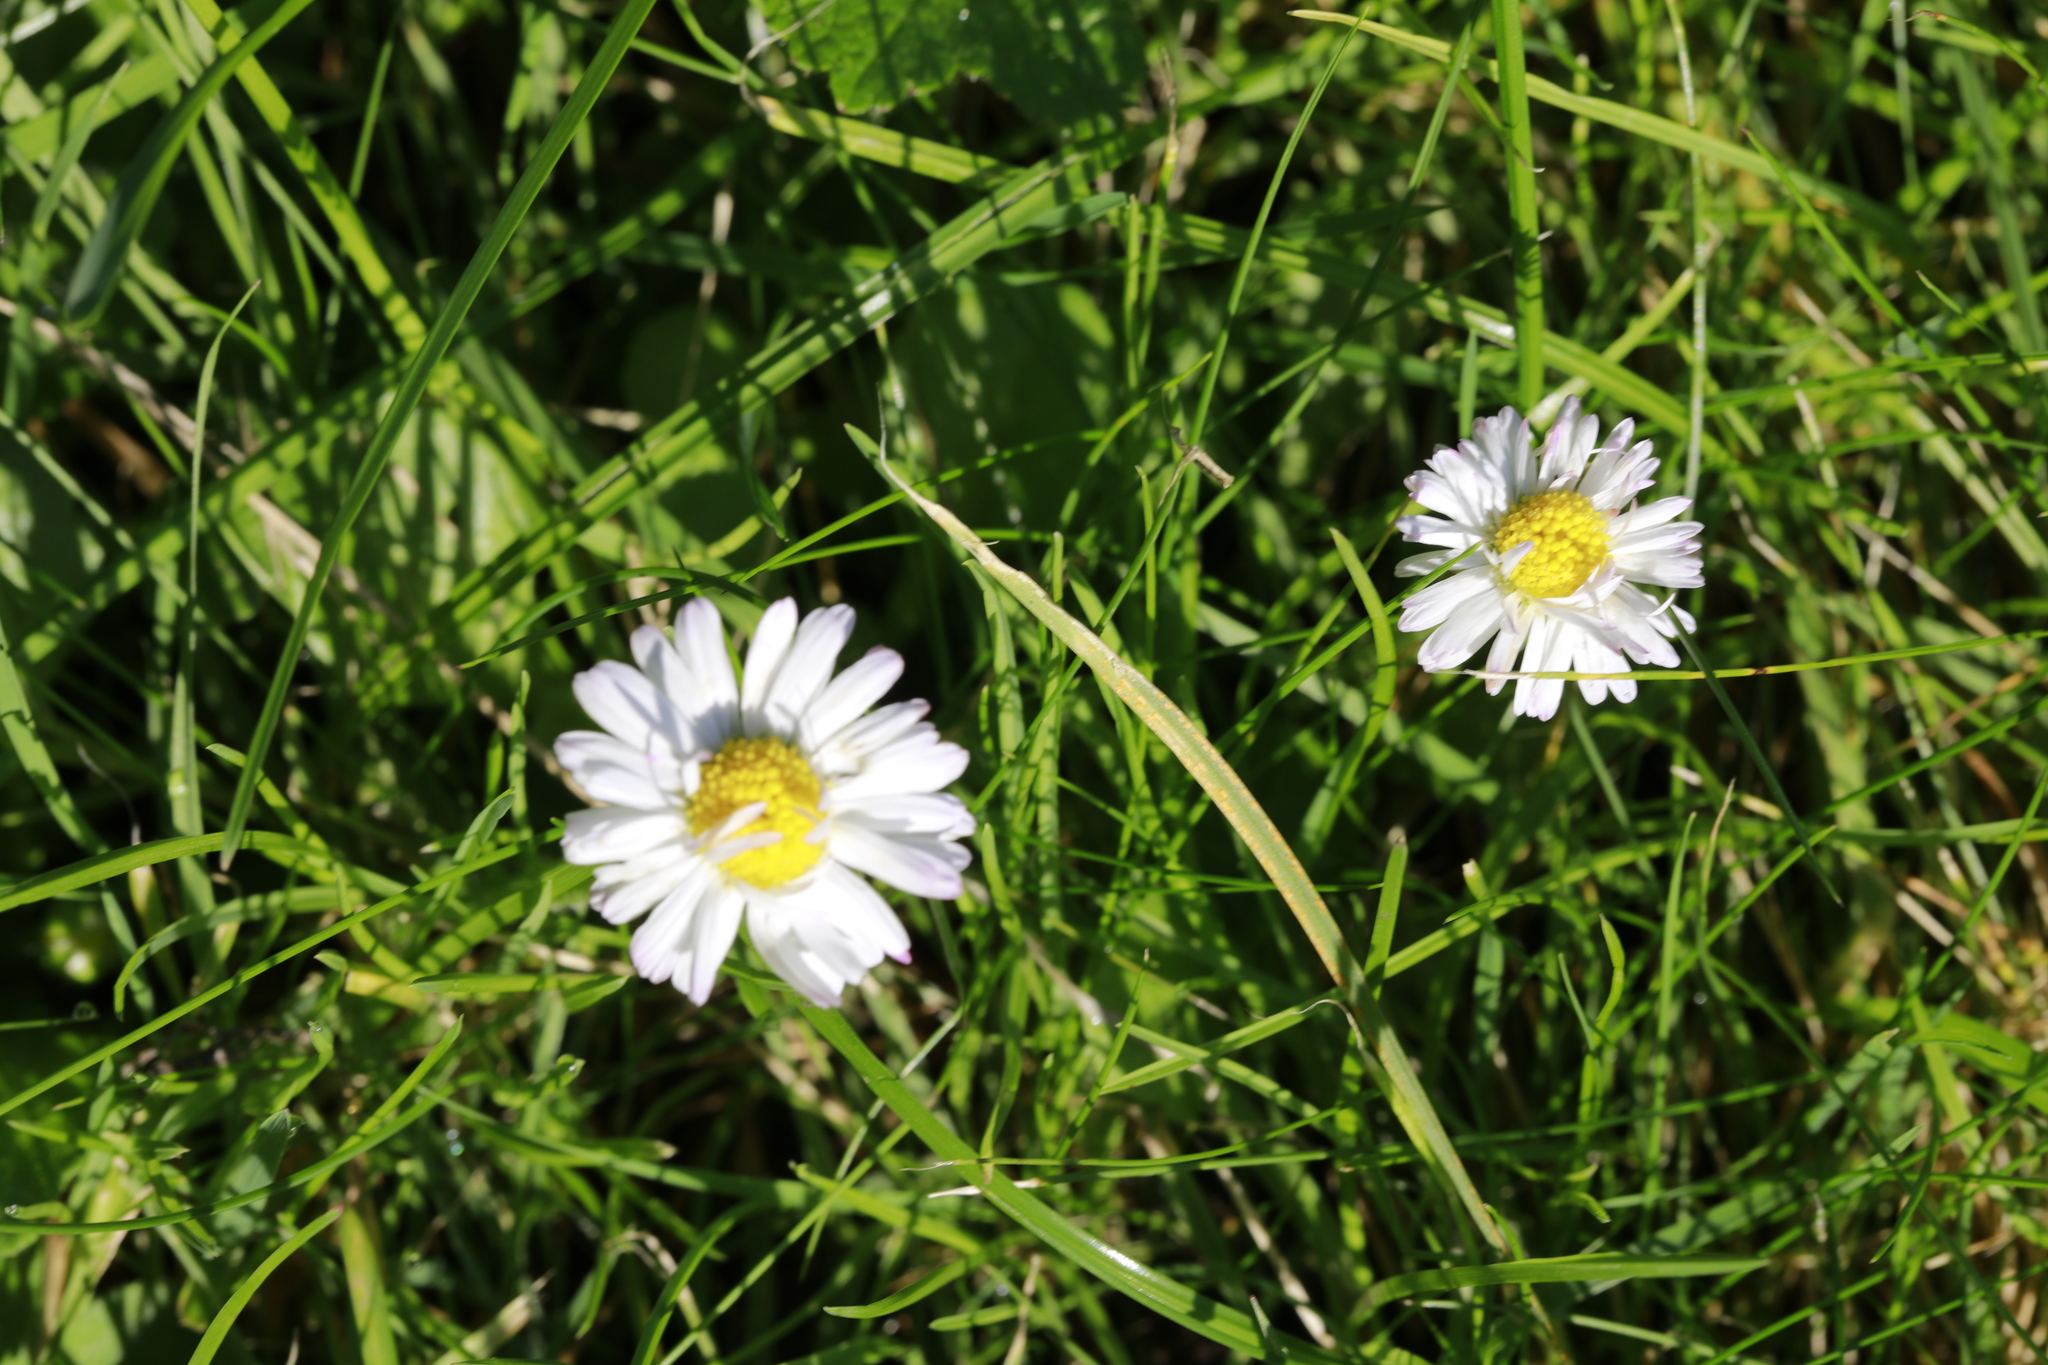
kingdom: Plantae
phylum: Tracheophyta
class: Magnoliopsida
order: Asterales
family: Asteraceae
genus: Bellis
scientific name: Bellis perennis
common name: Lawndaisy
